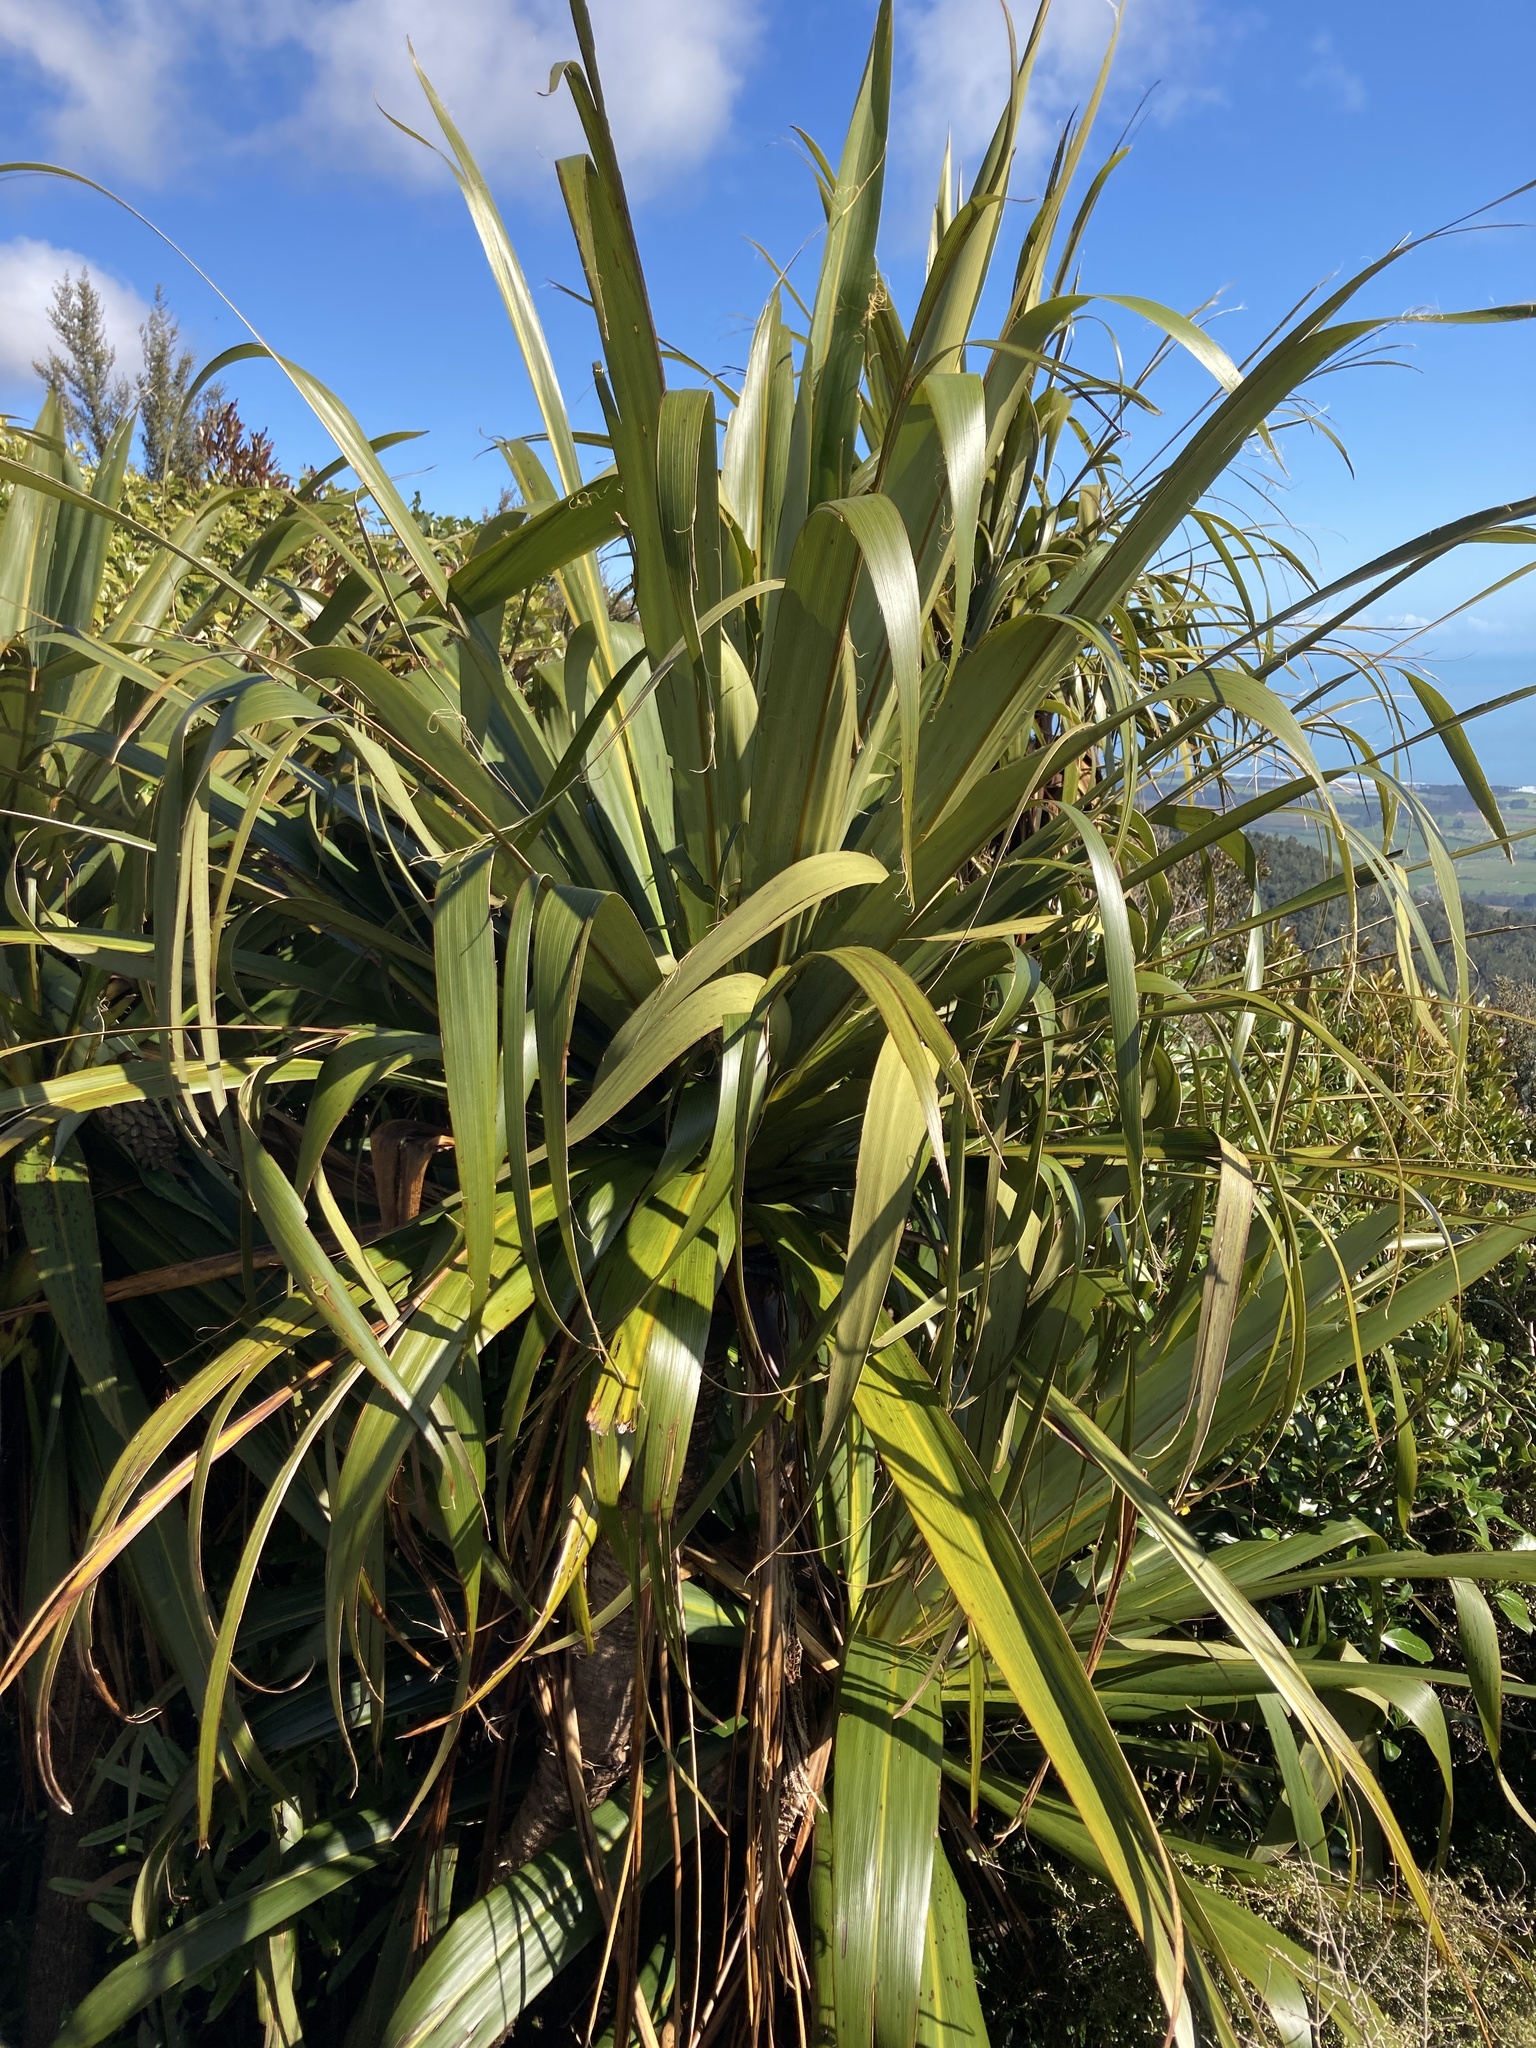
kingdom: Plantae
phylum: Tracheophyta
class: Liliopsida
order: Asparagales
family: Asparagaceae
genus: Cordyline
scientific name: Cordyline indivisa
